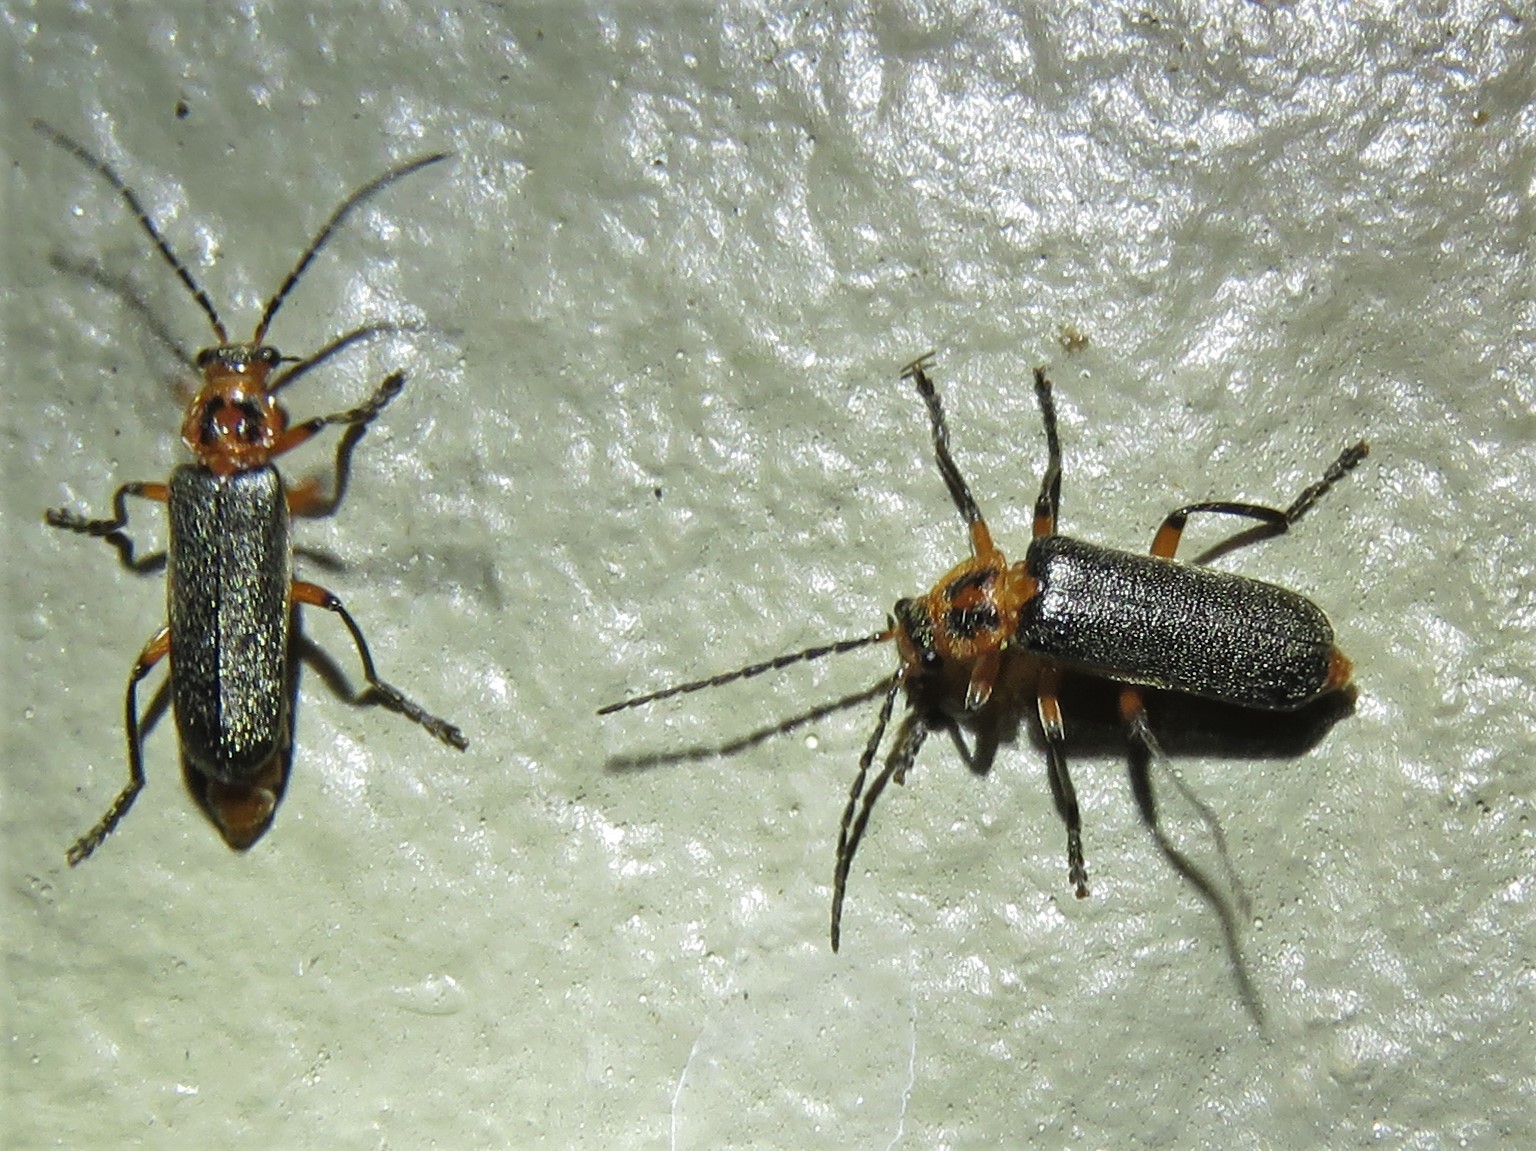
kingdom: Animalia
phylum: Arthropoda
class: Insecta
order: Coleoptera
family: Cantharidae
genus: Atalantycha
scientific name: Atalantycha bilineata
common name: Two-lined leatherwing
